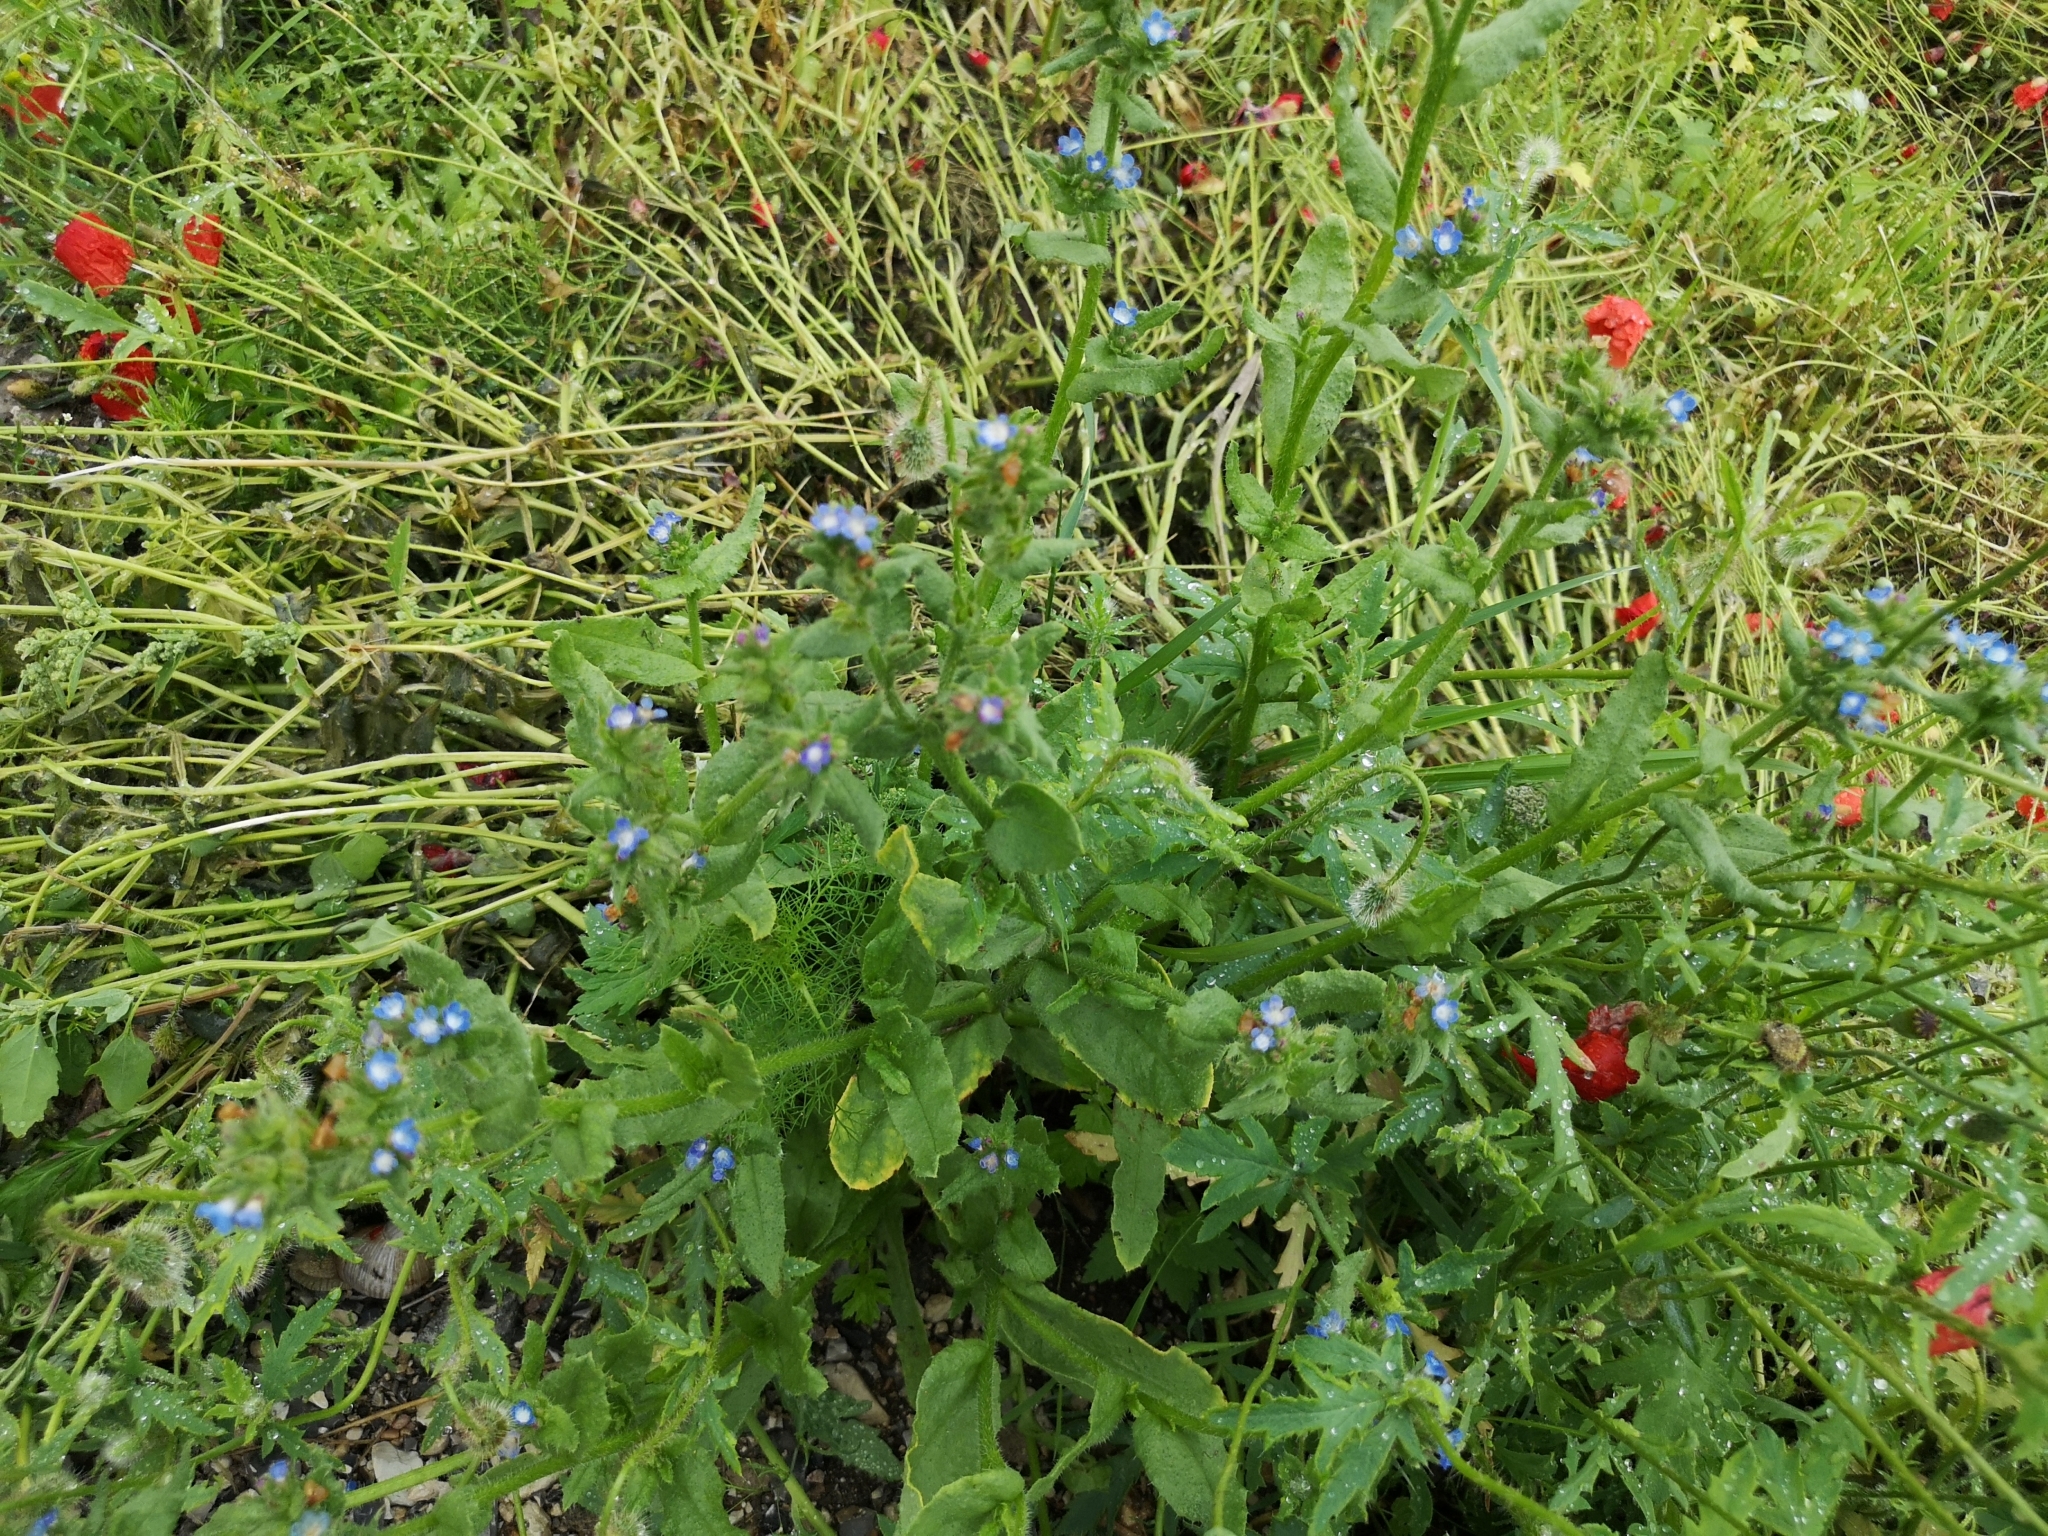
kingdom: Plantae
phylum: Tracheophyta
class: Magnoliopsida
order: Boraginales
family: Boraginaceae
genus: Lycopsis
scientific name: Lycopsis arvensis
